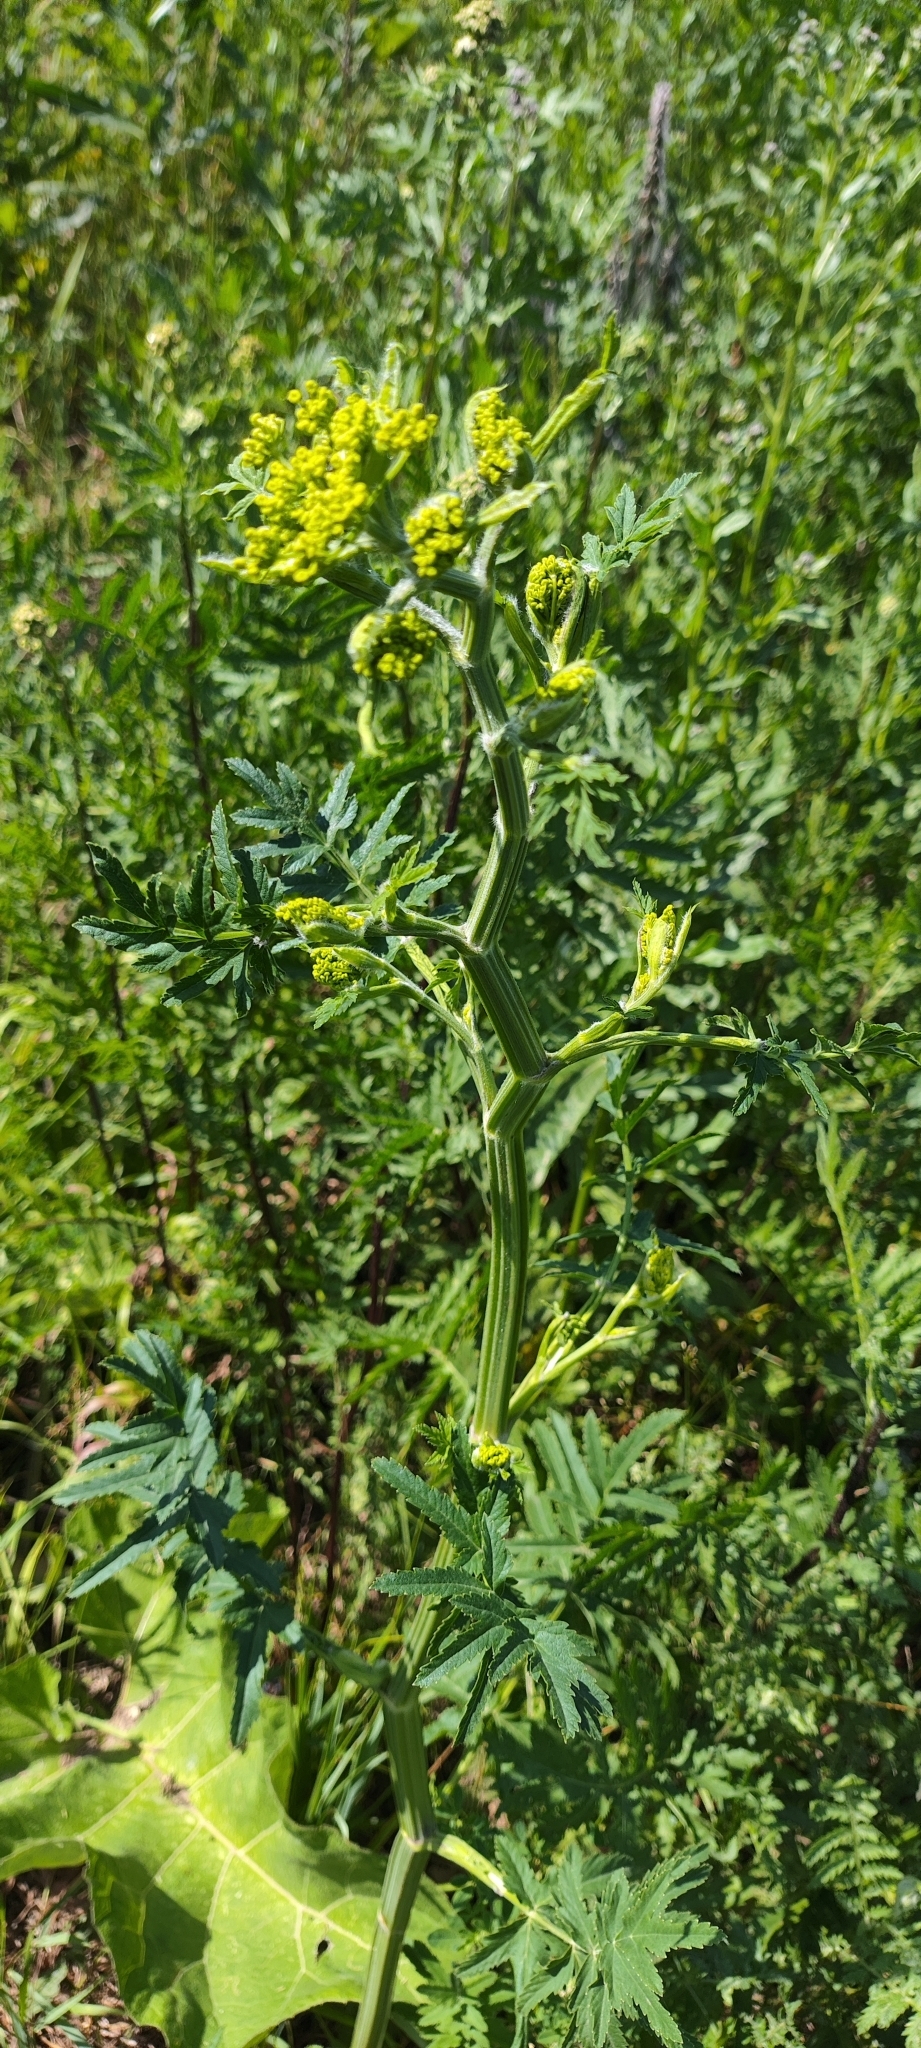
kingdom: Plantae
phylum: Tracheophyta
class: Magnoliopsida
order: Apiales
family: Apiaceae
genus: Pastinaca
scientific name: Pastinaca sativa
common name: Wild parsnip
